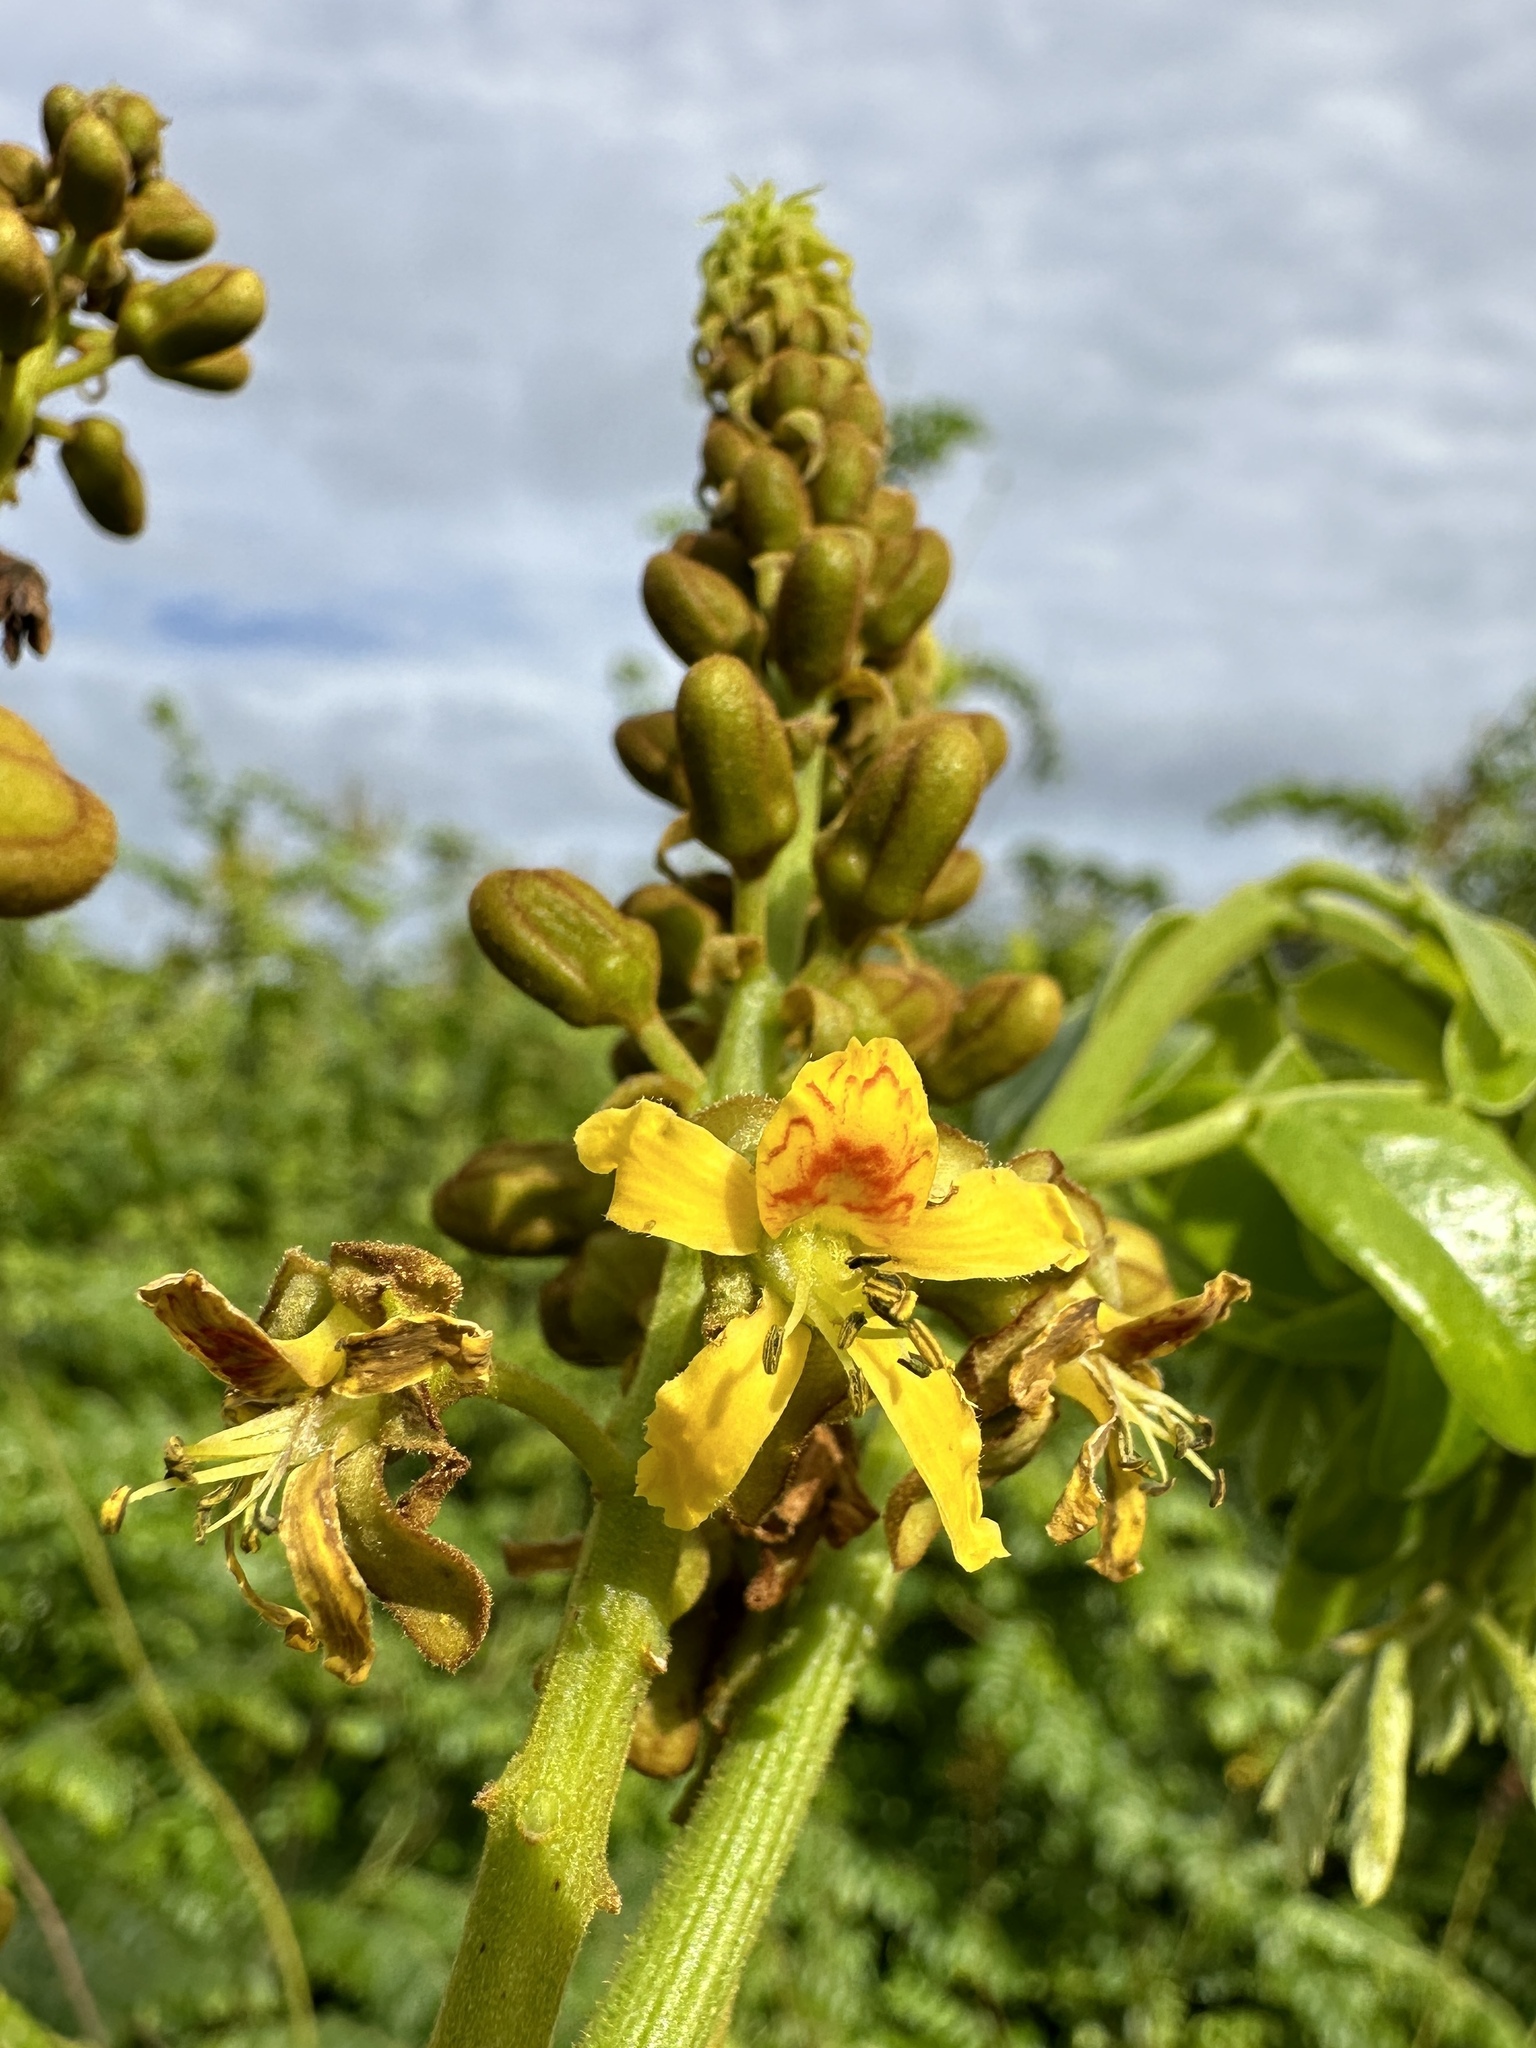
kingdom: Plantae
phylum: Tracheophyta
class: Magnoliopsida
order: Fabales
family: Fabaceae
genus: Guilandina
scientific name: Guilandina bonduc
